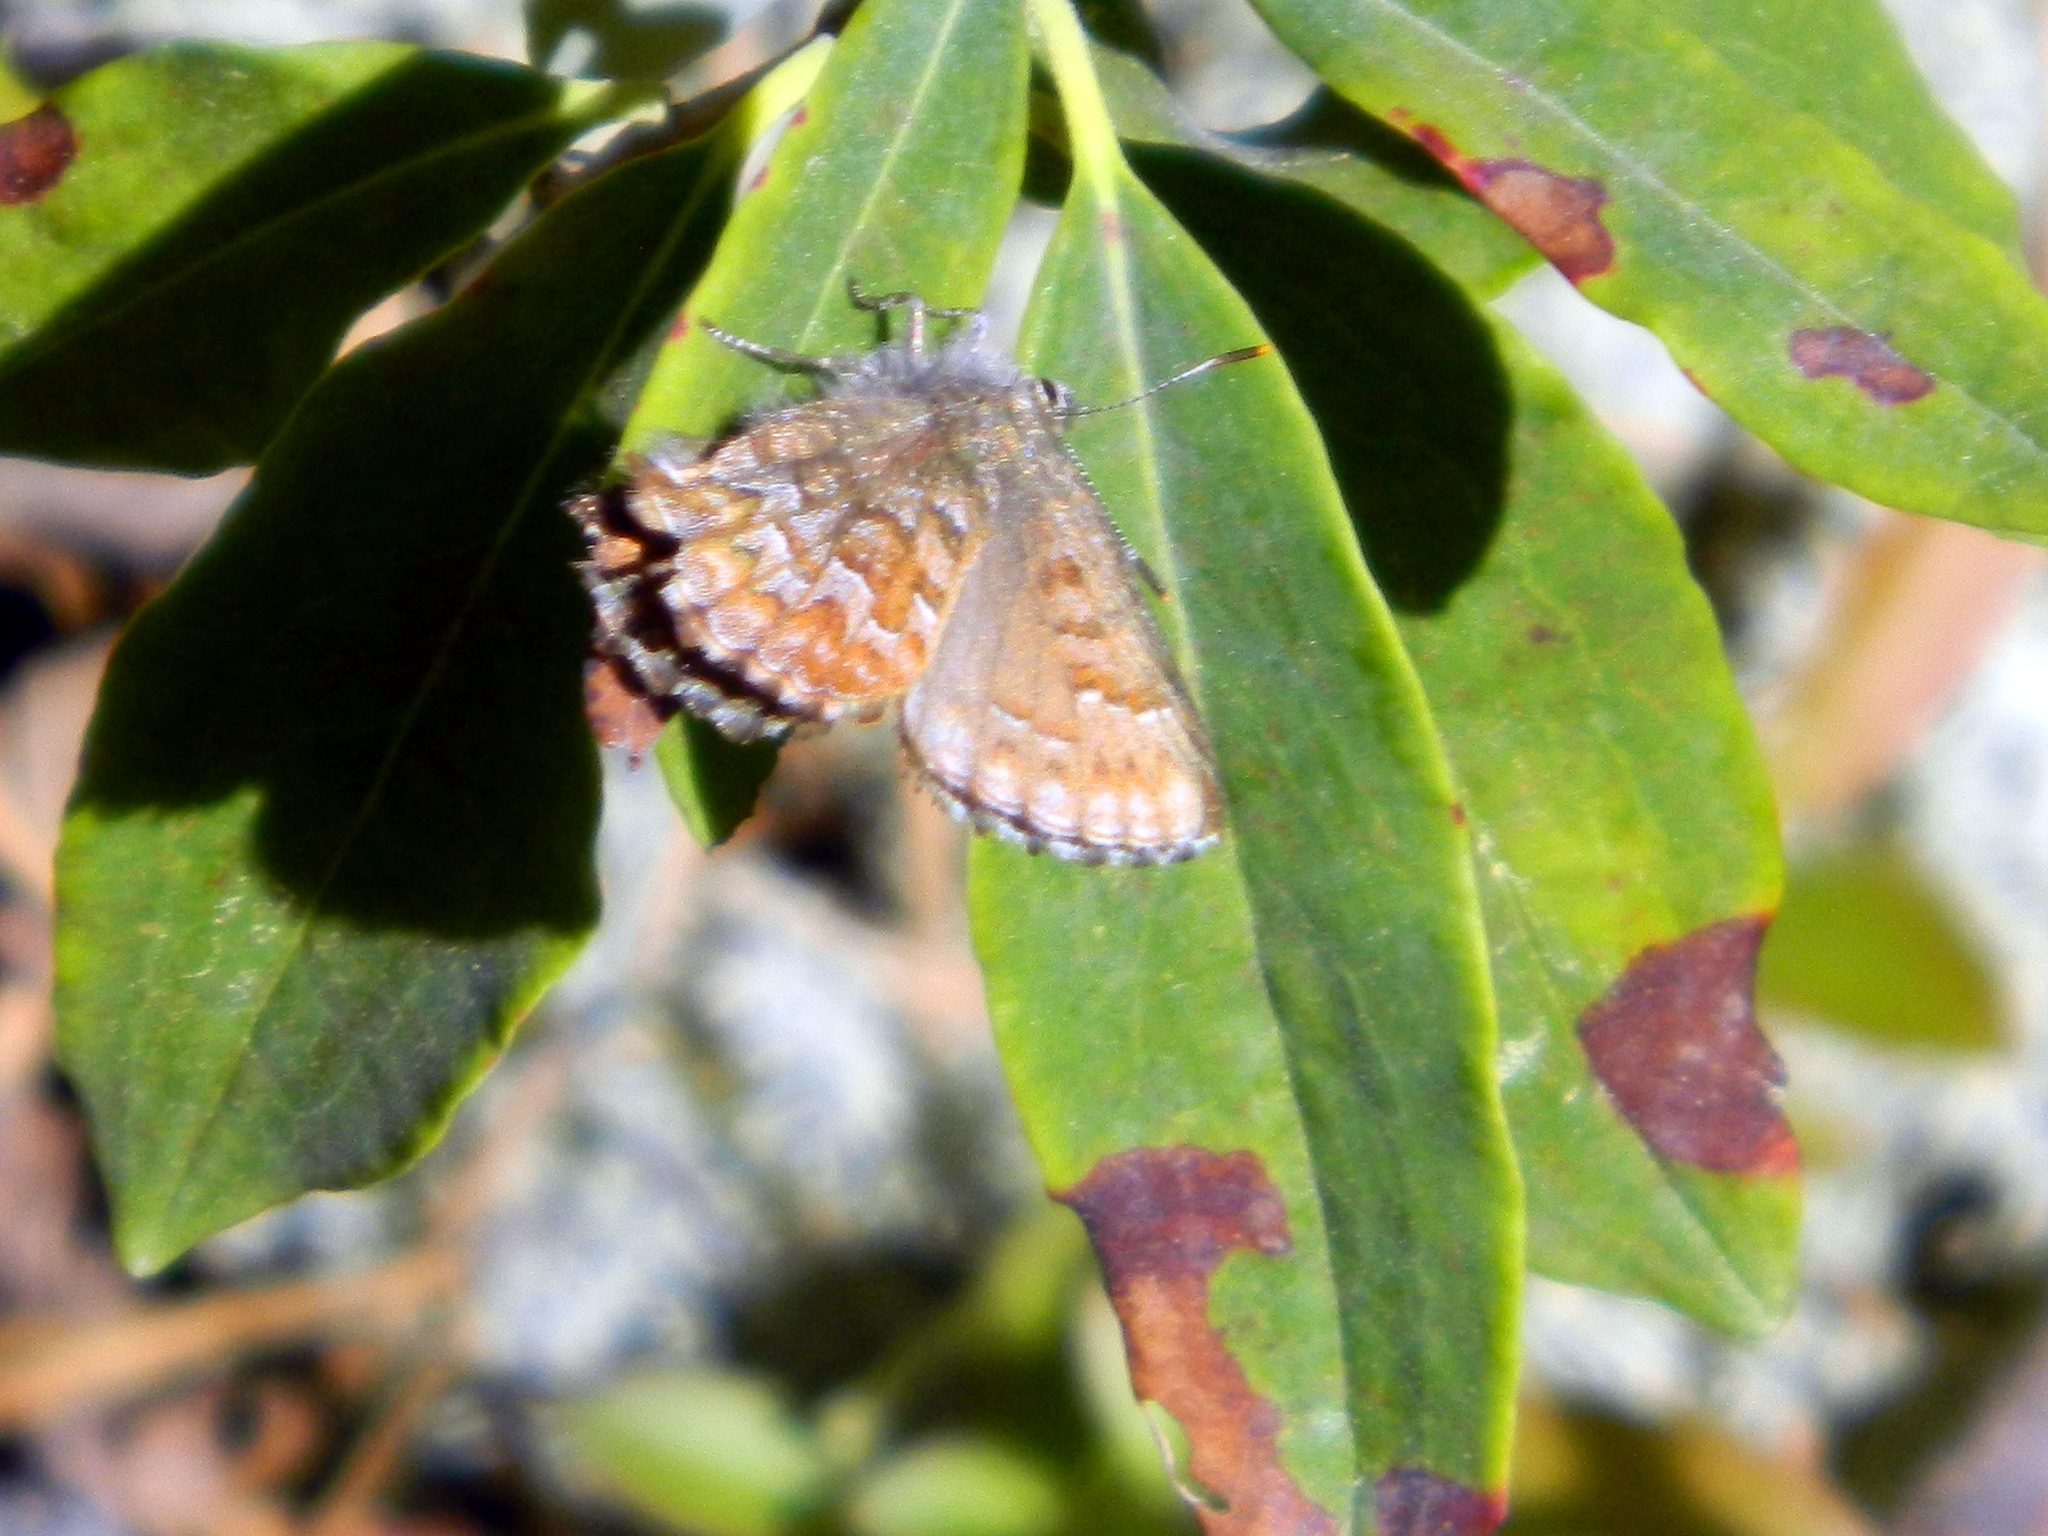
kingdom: Animalia
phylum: Arthropoda
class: Insecta
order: Lepidoptera
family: Lycaenidae
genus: Incisalia
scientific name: Incisalia niphon
